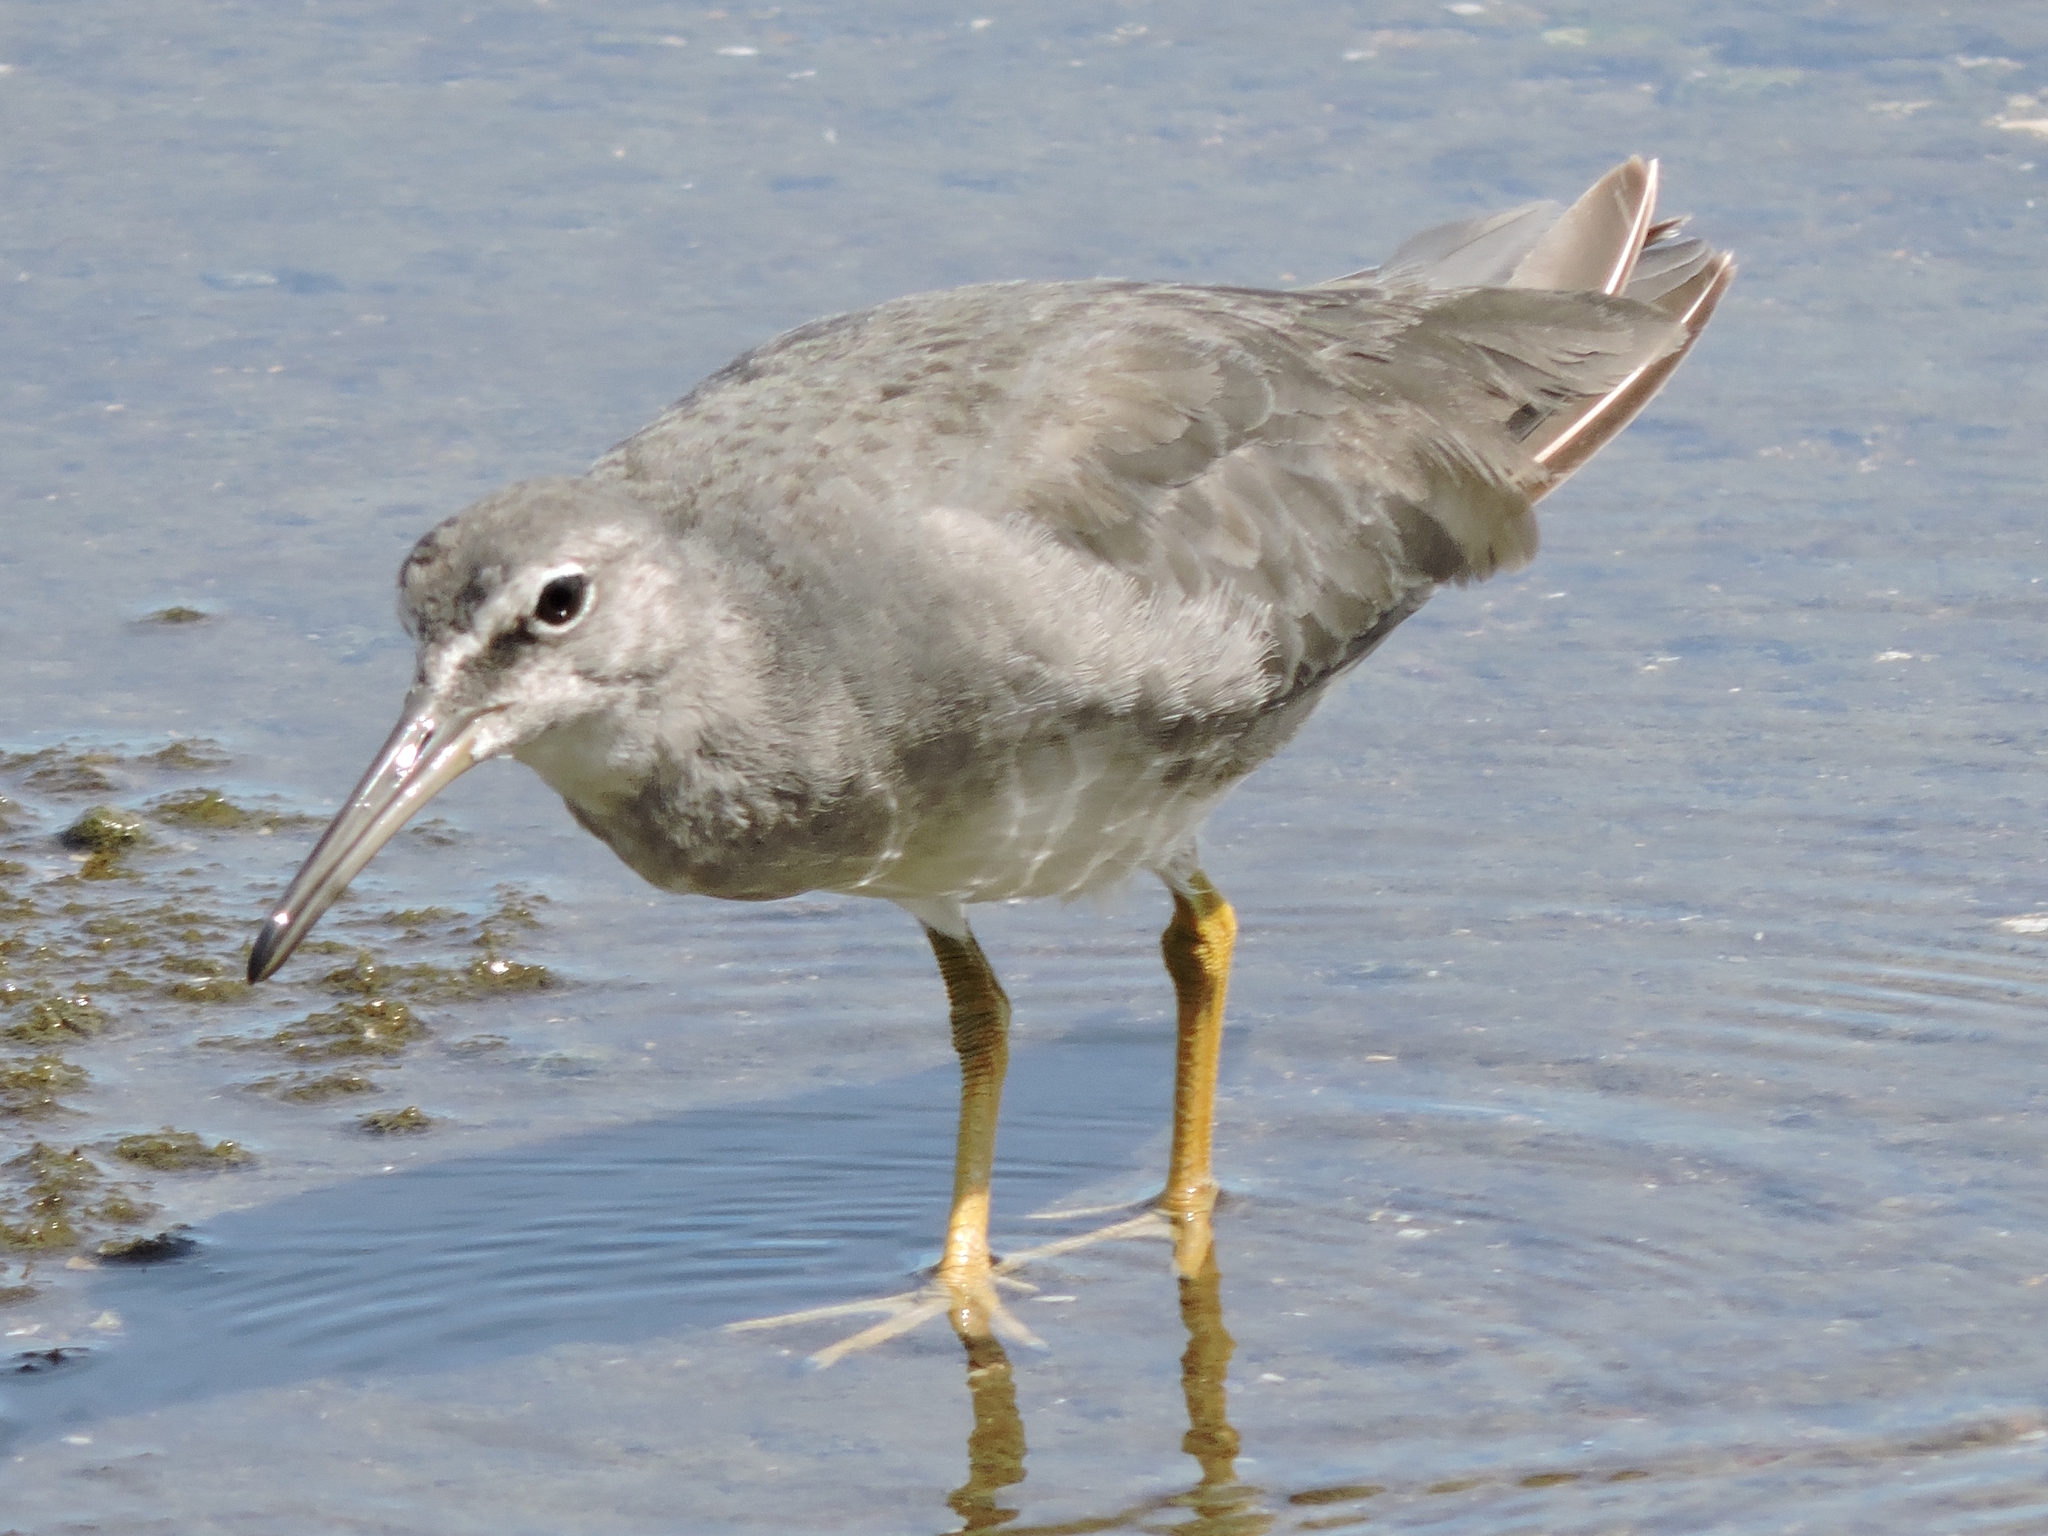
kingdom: Animalia
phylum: Chordata
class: Aves
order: Charadriiformes
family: Scolopacidae
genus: Tringa
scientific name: Tringa brevipes
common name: Grey-tailed tattler
